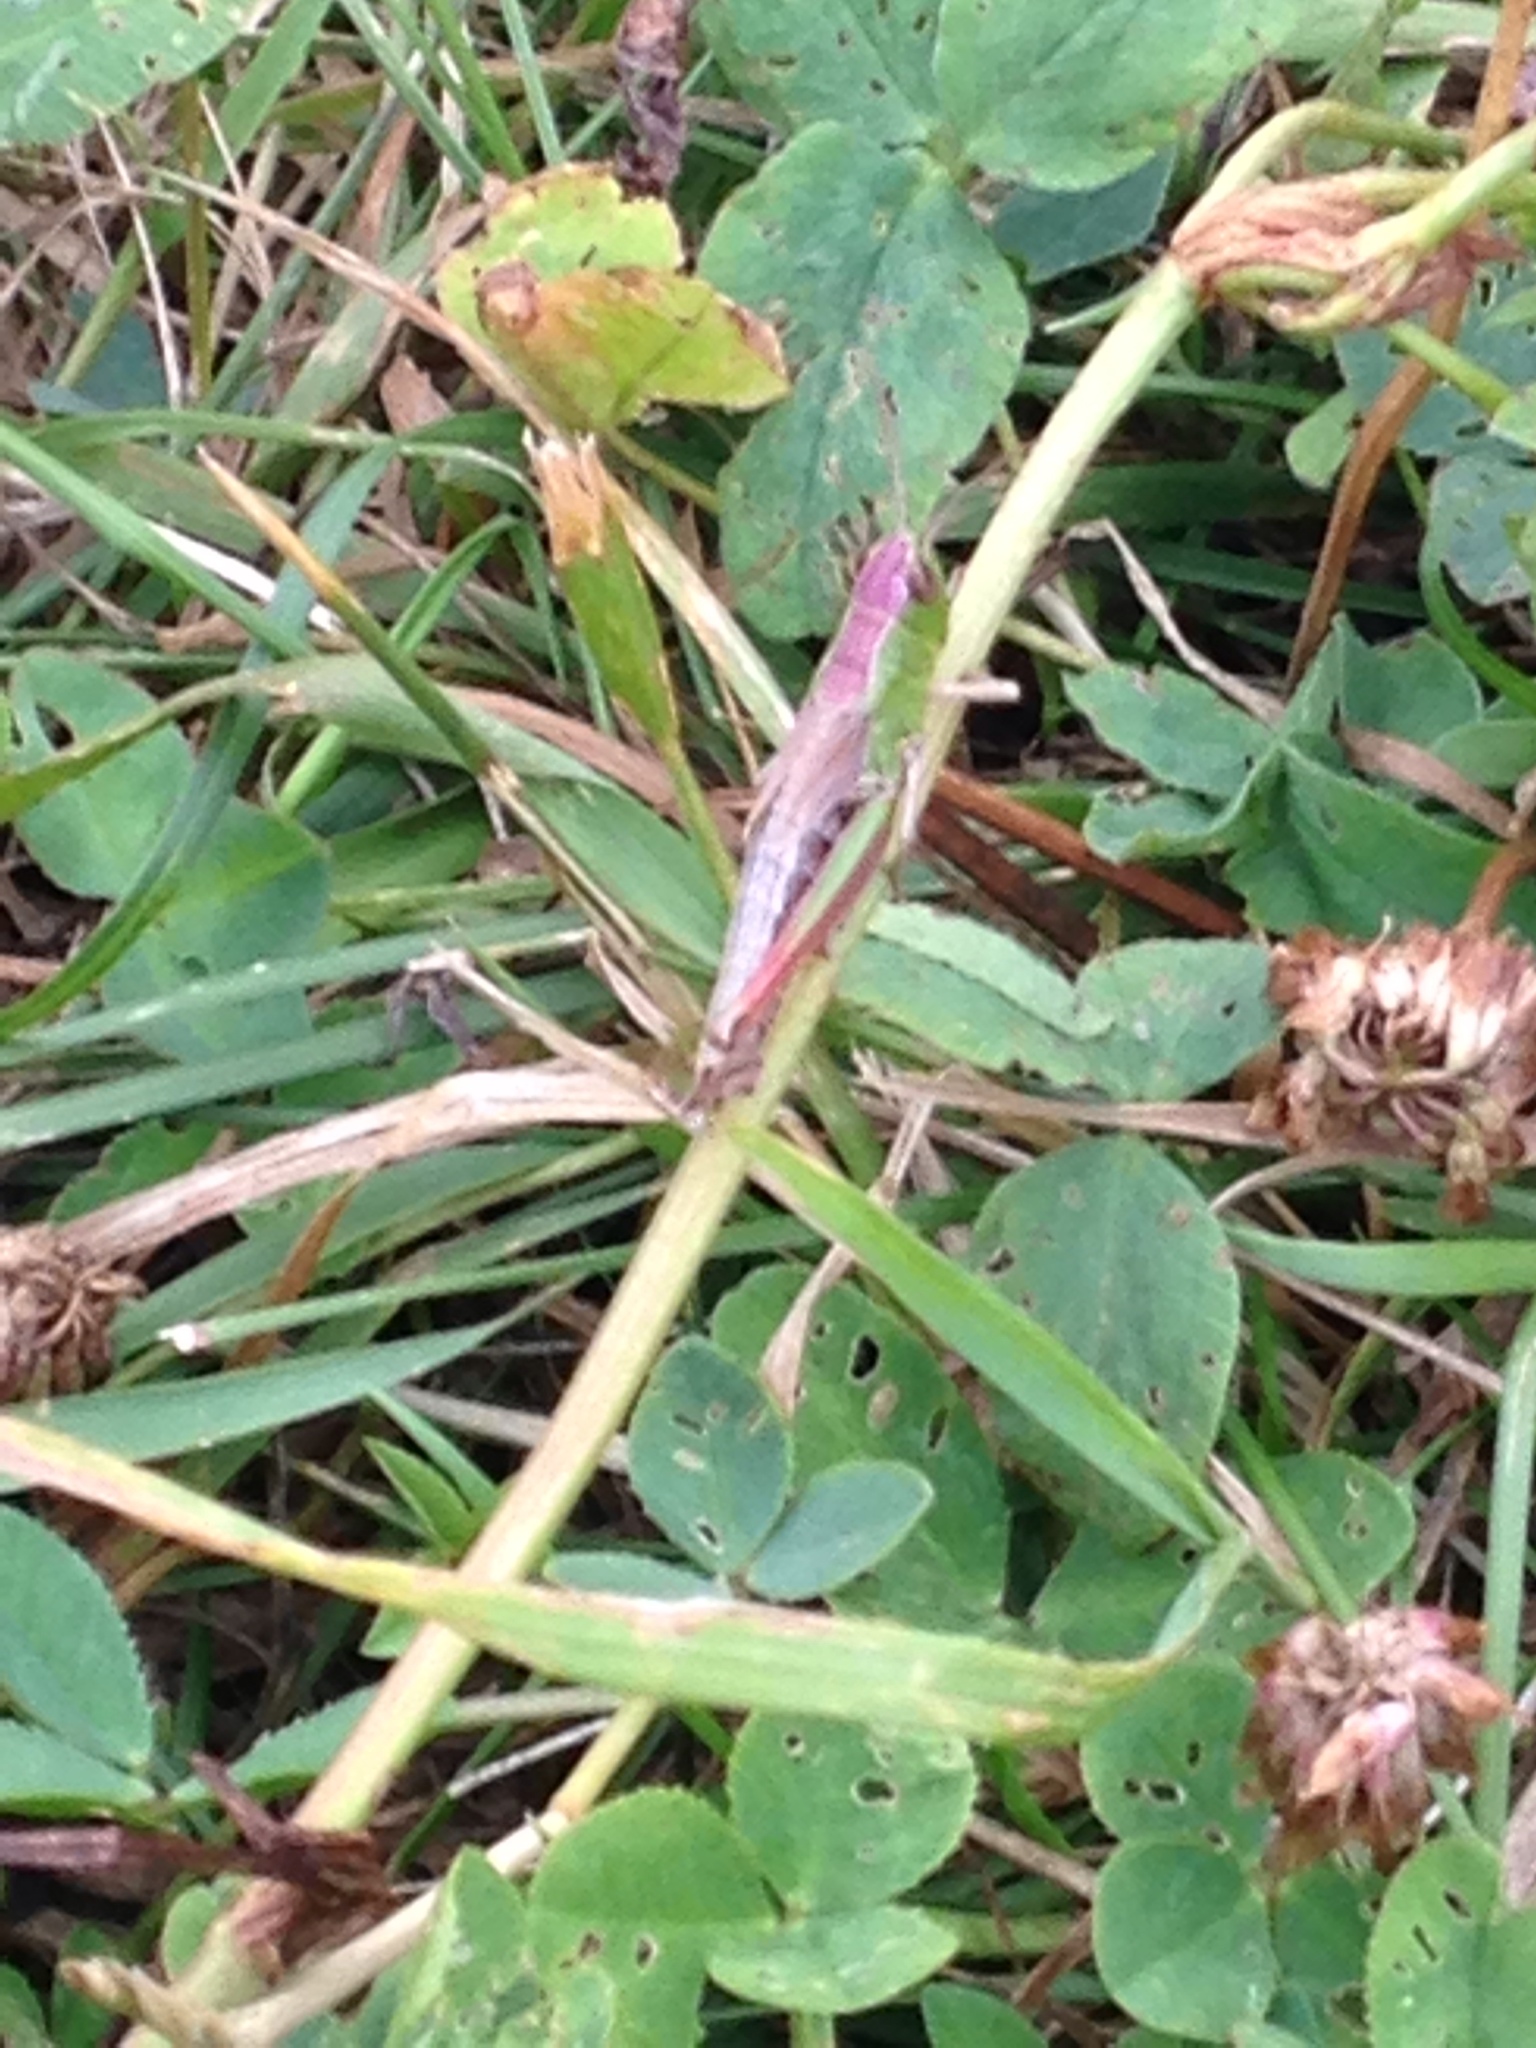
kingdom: Animalia
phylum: Arthropoda
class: Insecta
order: Orthoptera
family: Acrididae
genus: Pseudochorthippus
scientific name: Pseudochorthippus parallelus
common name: Meadow grasshopper
